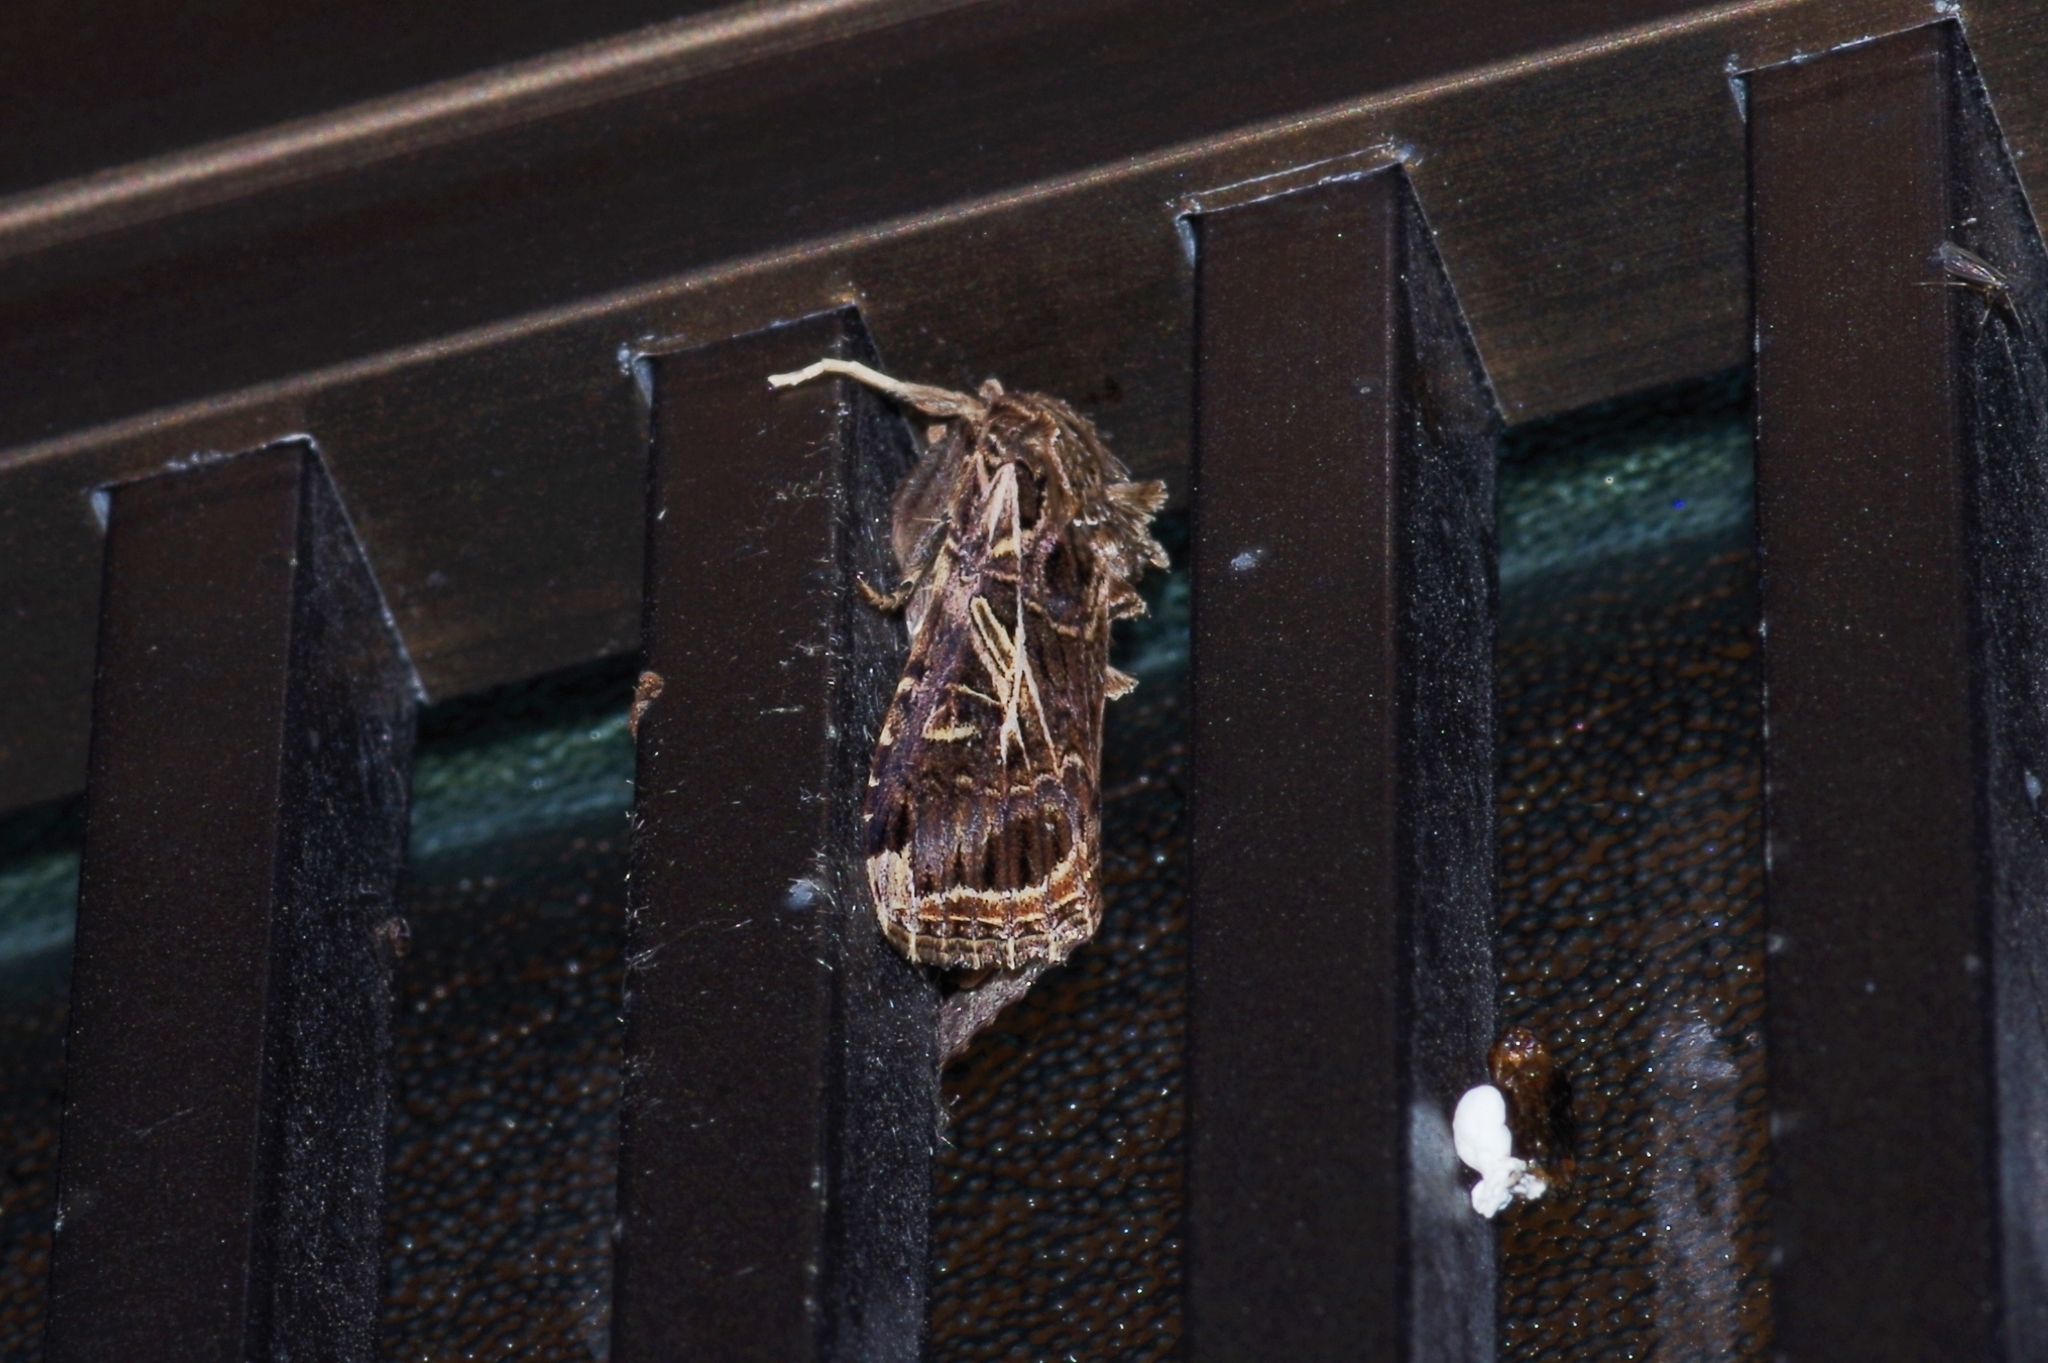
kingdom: Animalia
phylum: Arthropoda
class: Insecta
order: Lepidoptera
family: Noctuidae
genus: Spodoptera
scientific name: Spodoptera litura
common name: Asian cotton leafworm
